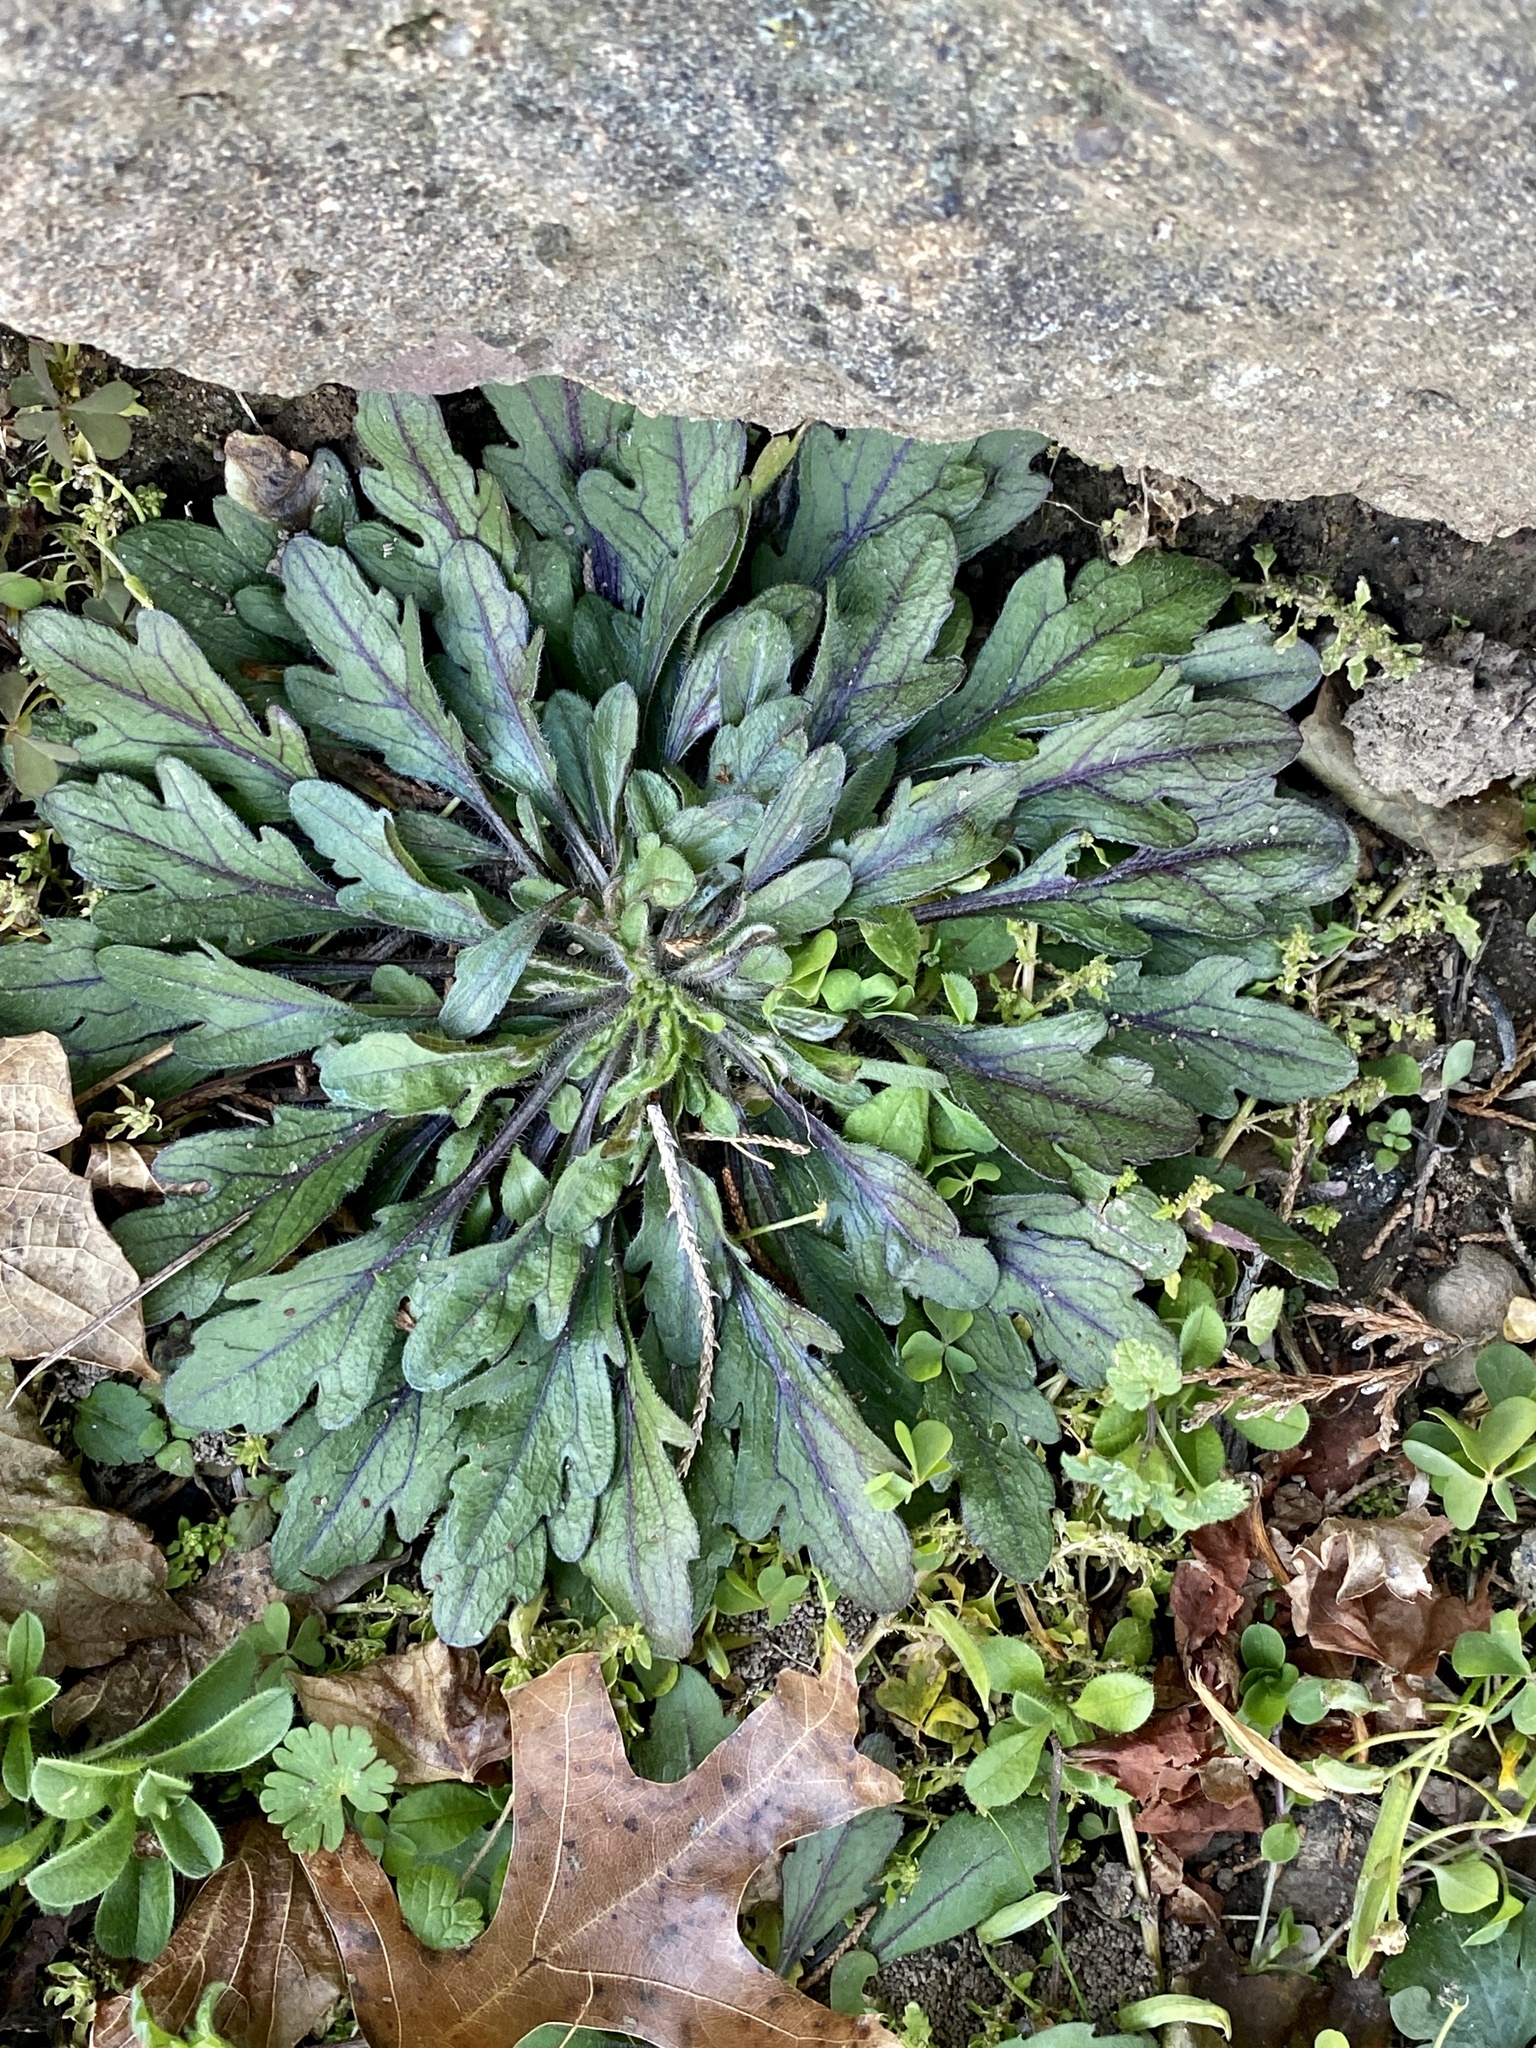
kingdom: Plantae
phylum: Tracheophyta
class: Magnoliopsida
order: Asterales
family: Asteraceae
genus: Erigeron
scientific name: Erigeron canadensis
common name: Canadian fleabane
